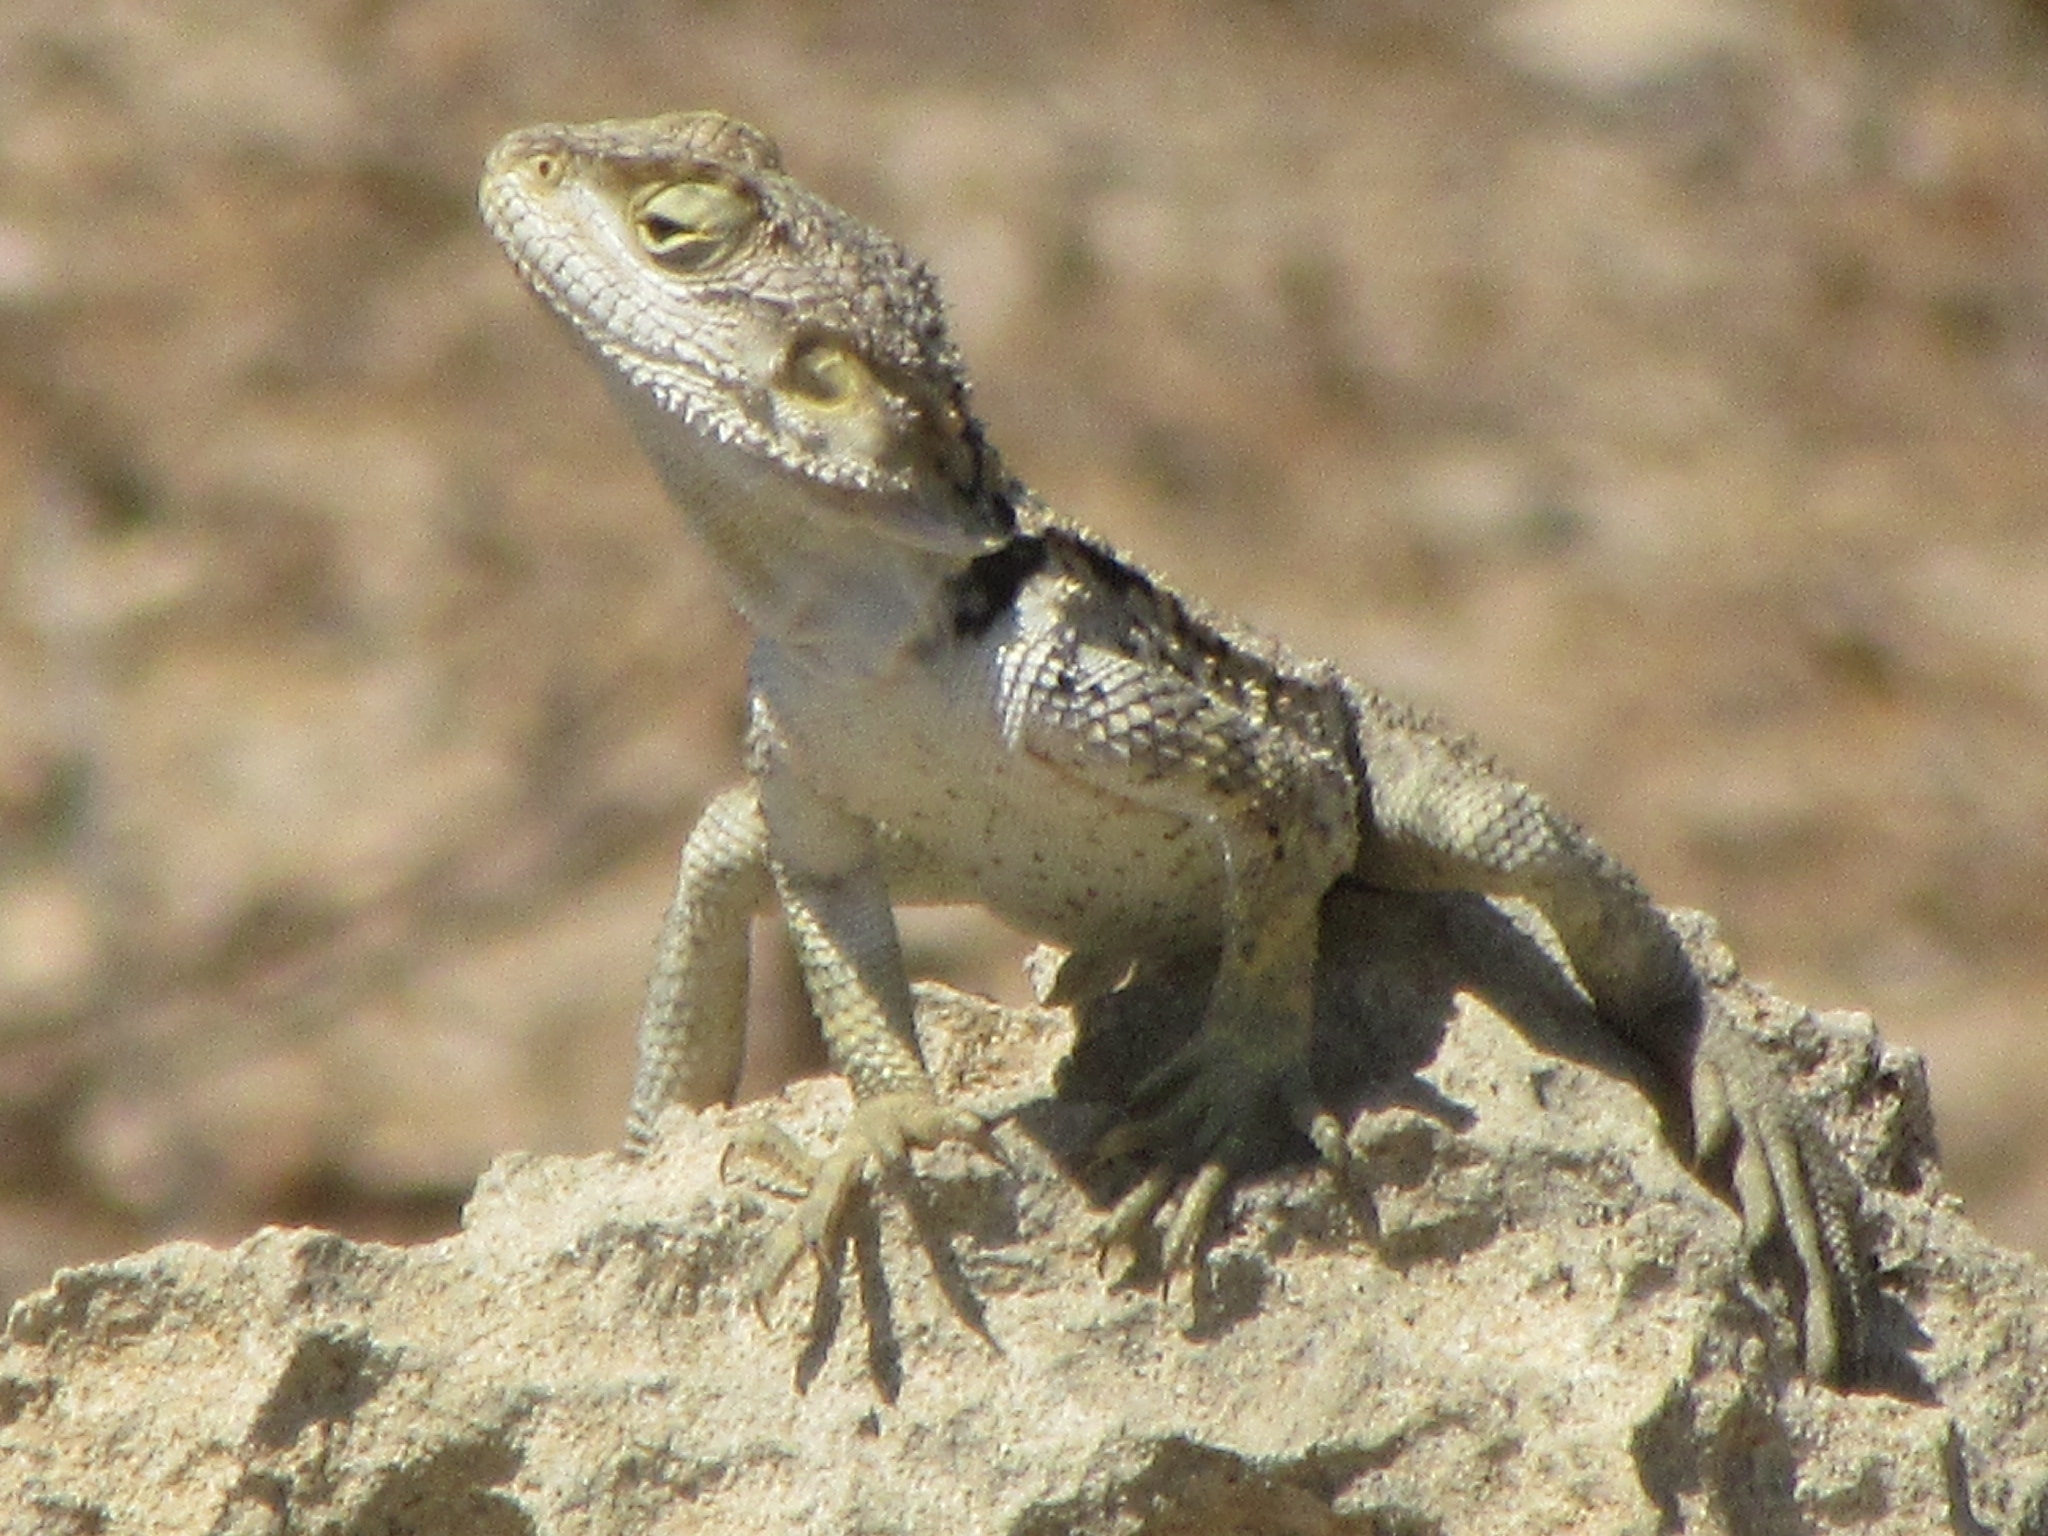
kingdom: Animalia
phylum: Chordata
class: Squamata
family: Agamidae
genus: Laudakia
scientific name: Laudakia
